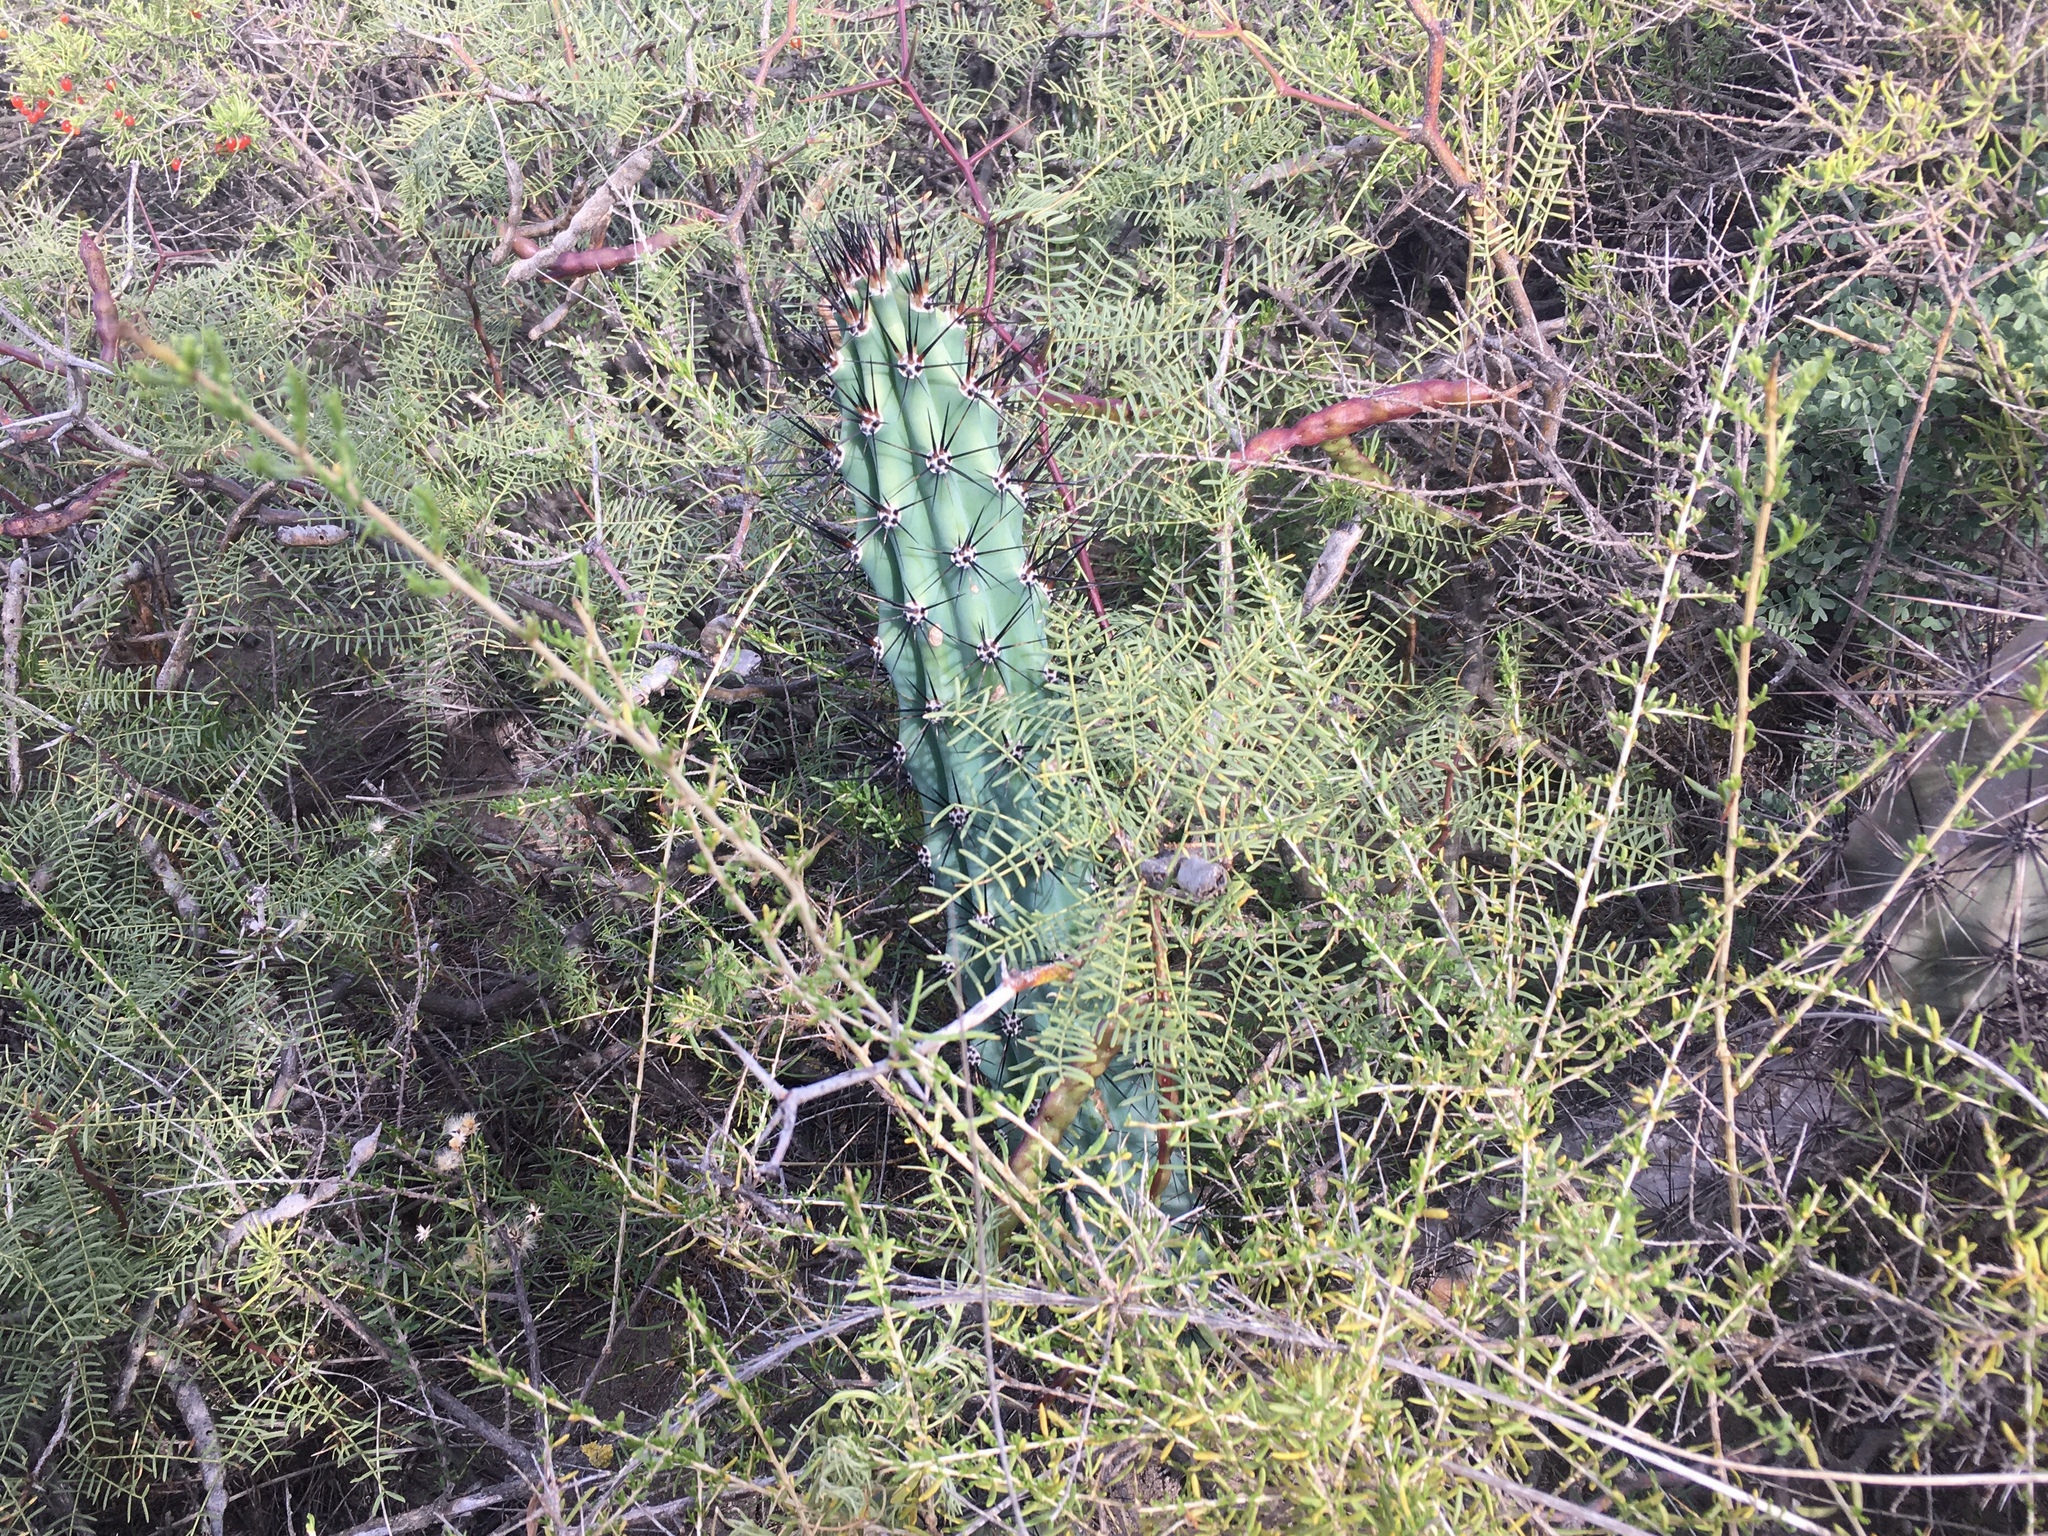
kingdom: Plantae
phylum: Tracheophyta
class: Magnoliopsida
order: Caryophyllales
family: Cactaceae
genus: Cereus
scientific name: Cereus aethiops
